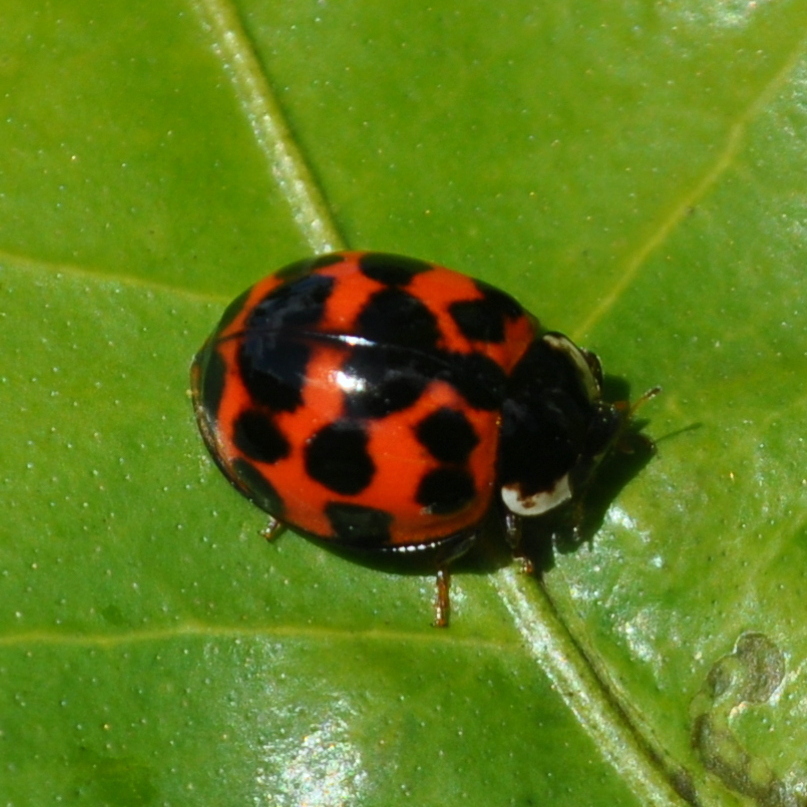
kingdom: Animalia
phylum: Arthropoda
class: Insecta
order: Coleoptera
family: Coccinellidae
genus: Harmonia
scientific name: Harmonia axyridis
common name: Harlequin ladybird
